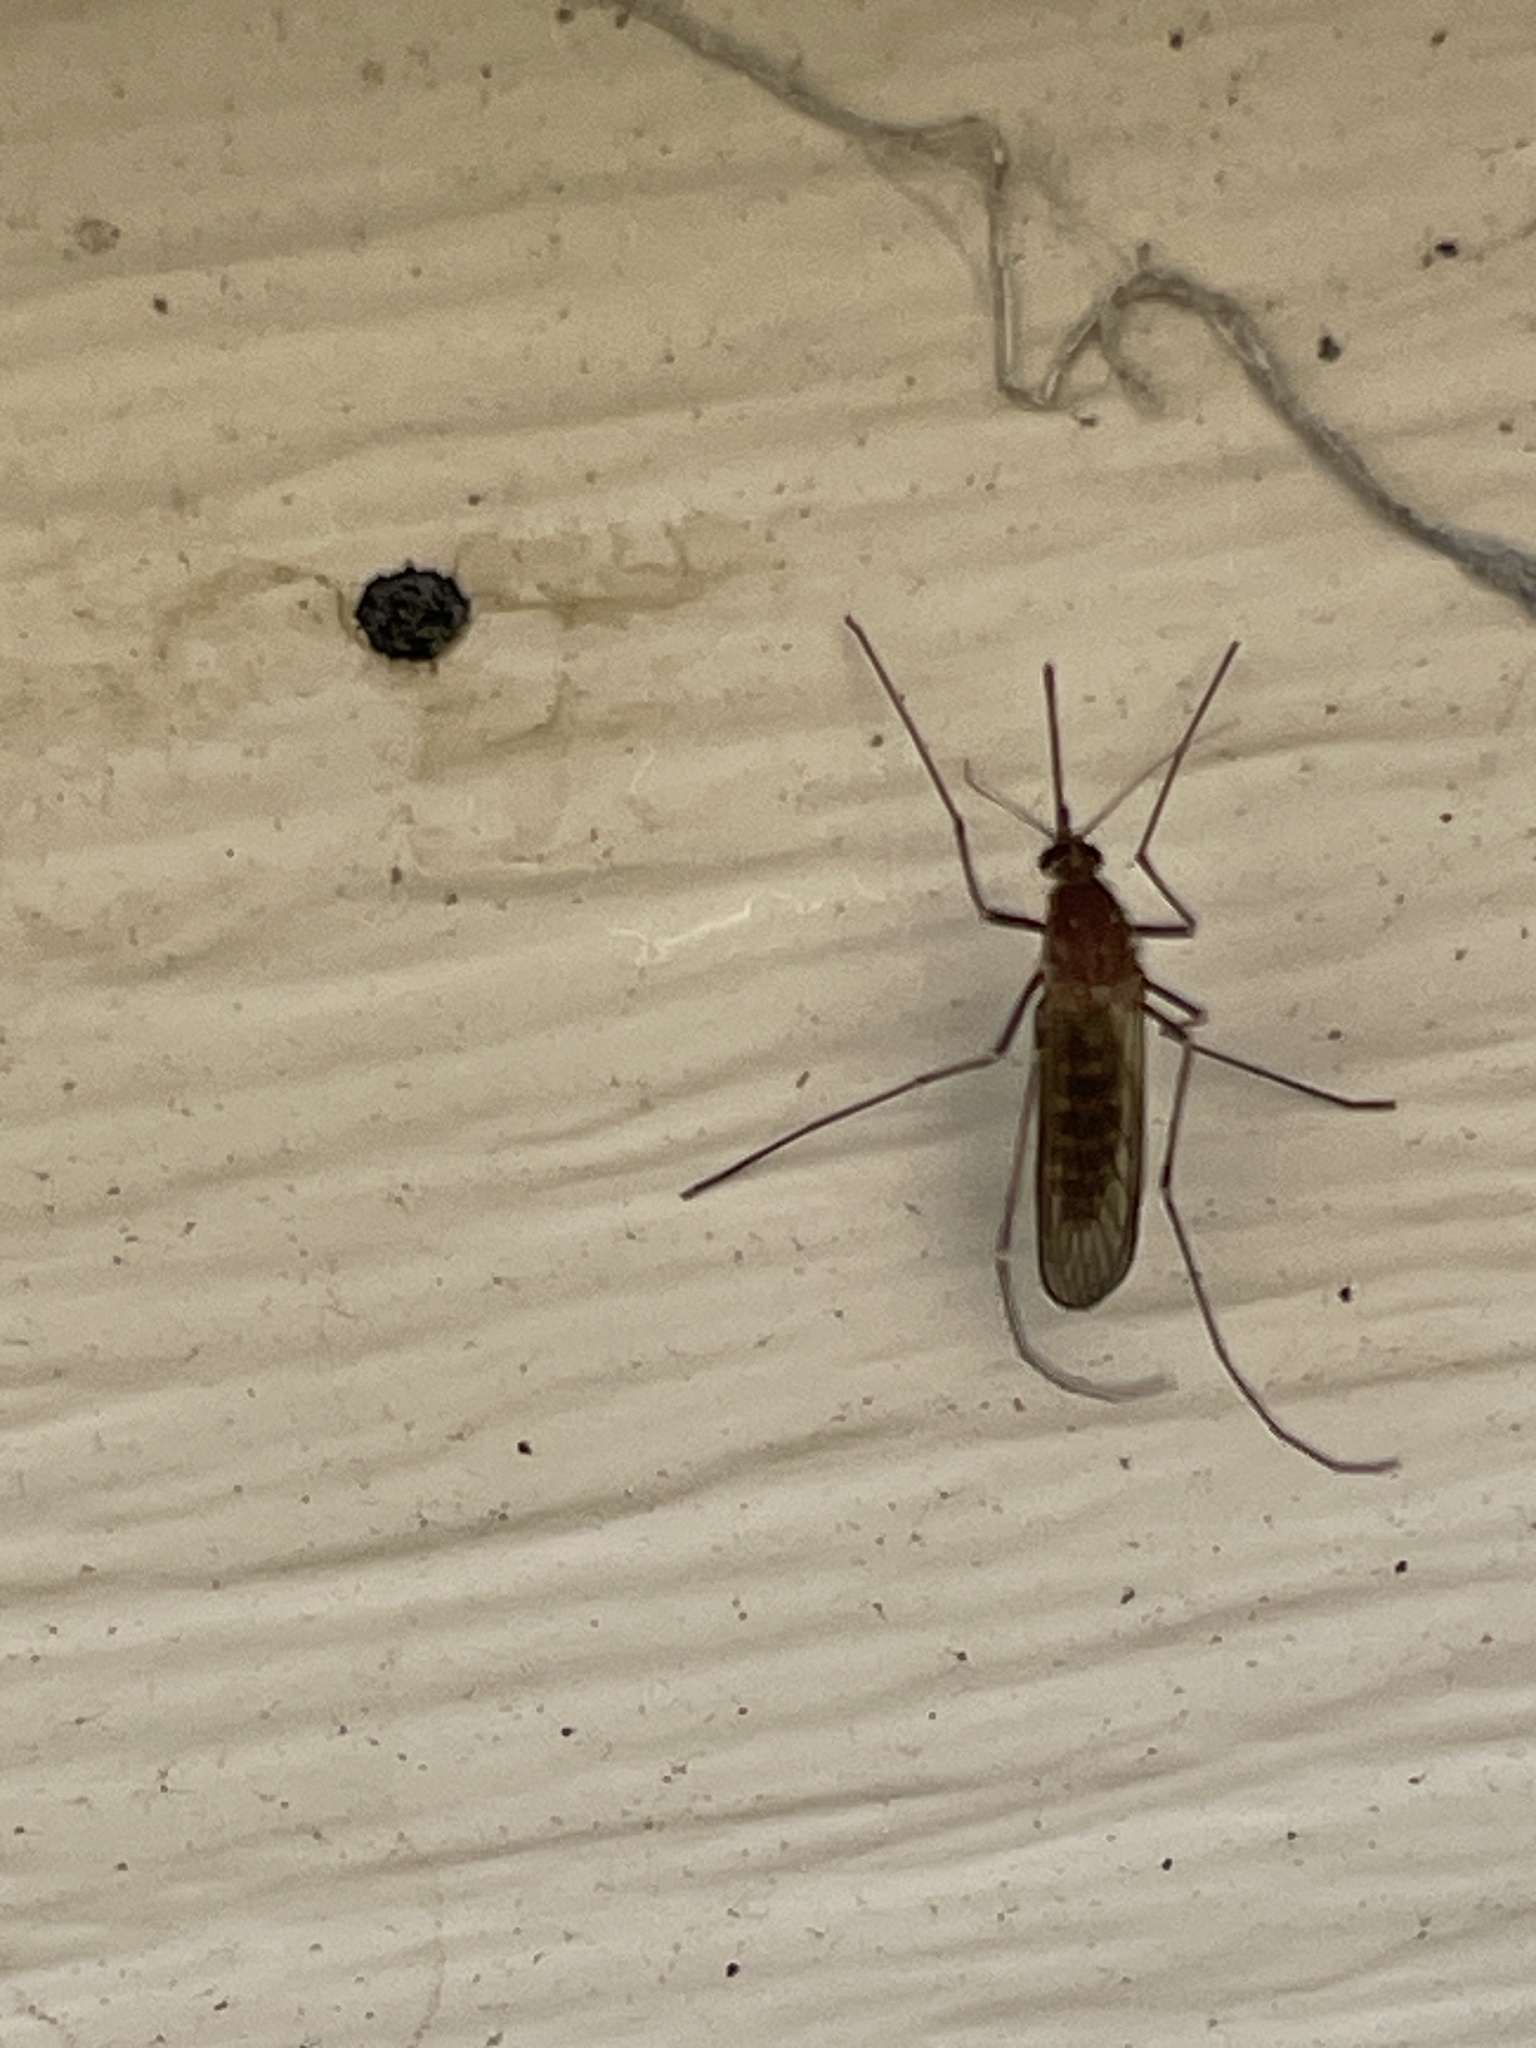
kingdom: Animalia
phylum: Arthropoda
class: Insecta
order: Diptera
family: Culicidae
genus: Aedes
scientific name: Aedes vexans
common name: Inland floodwater mosquito
